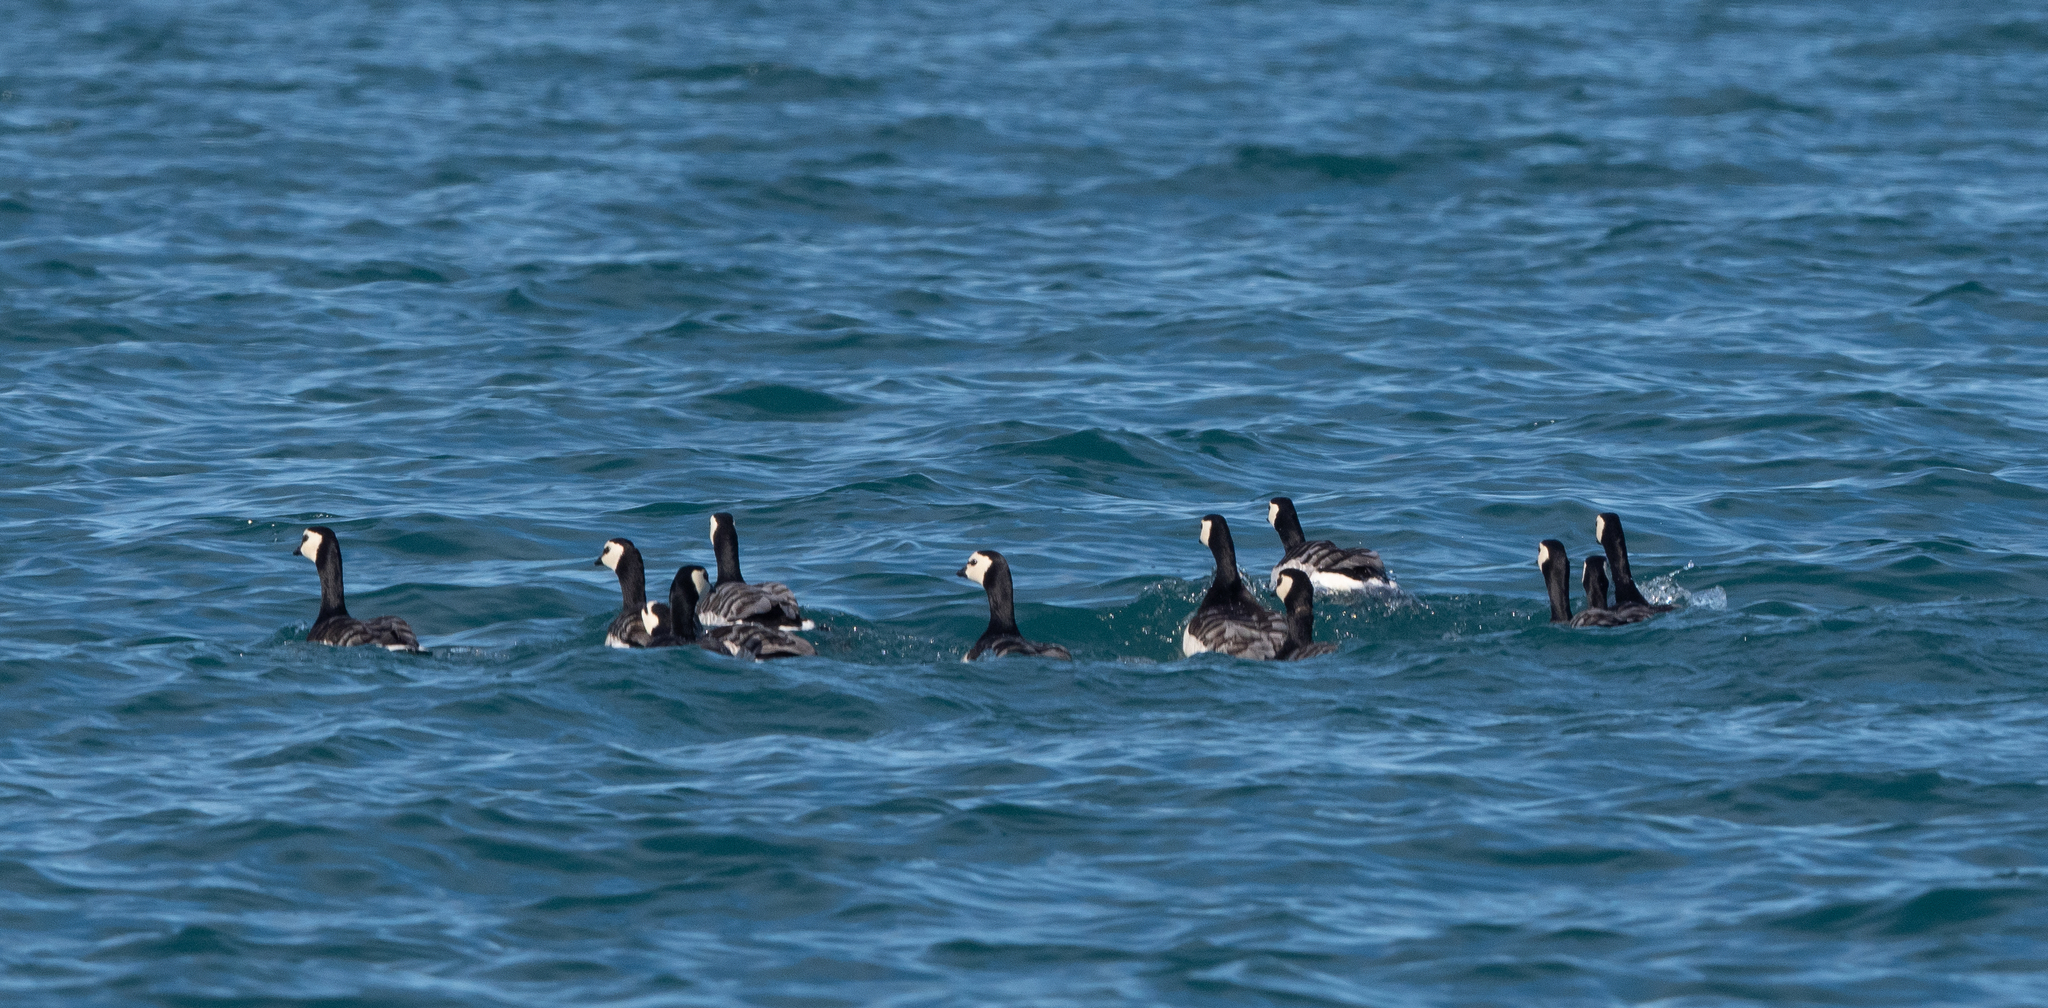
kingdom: Animalia
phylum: Chordata
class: Aves
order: Anseriformes
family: Anatidae
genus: Branta
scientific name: Branta leucopsis
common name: Barnacle goose
